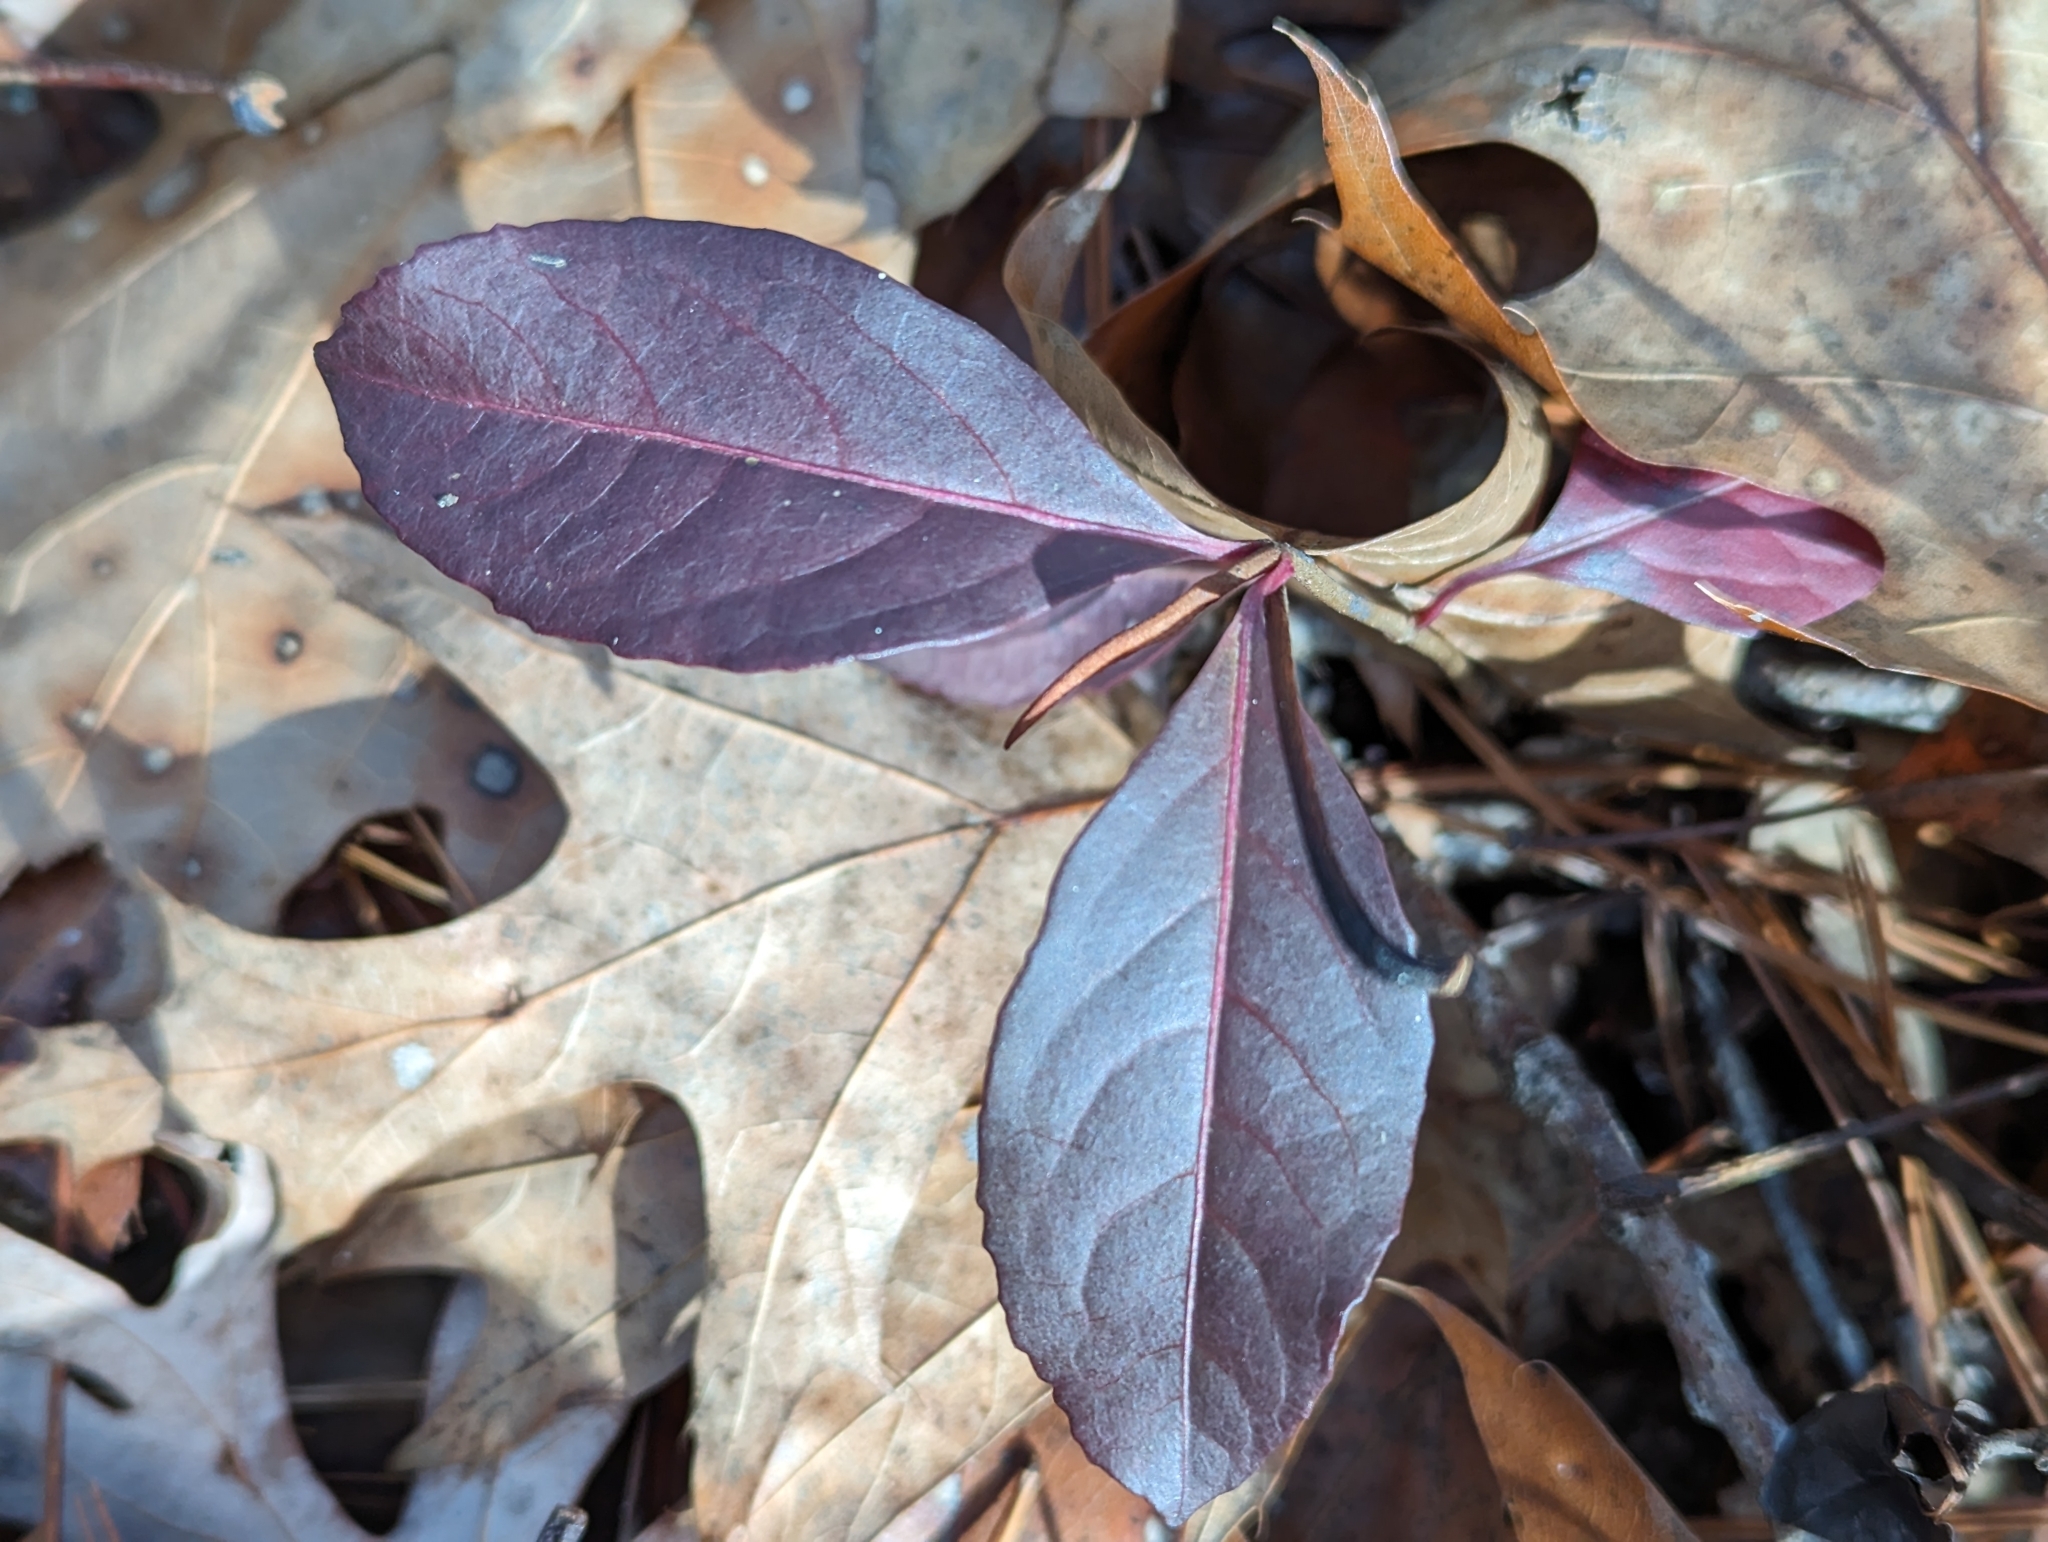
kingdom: Plantae
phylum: Tracheophyta
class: Magnoliopsida
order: Dipsacales
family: Viburnaceae
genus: Viburnum
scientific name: Viburnum cassinoides
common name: Swamp haw
